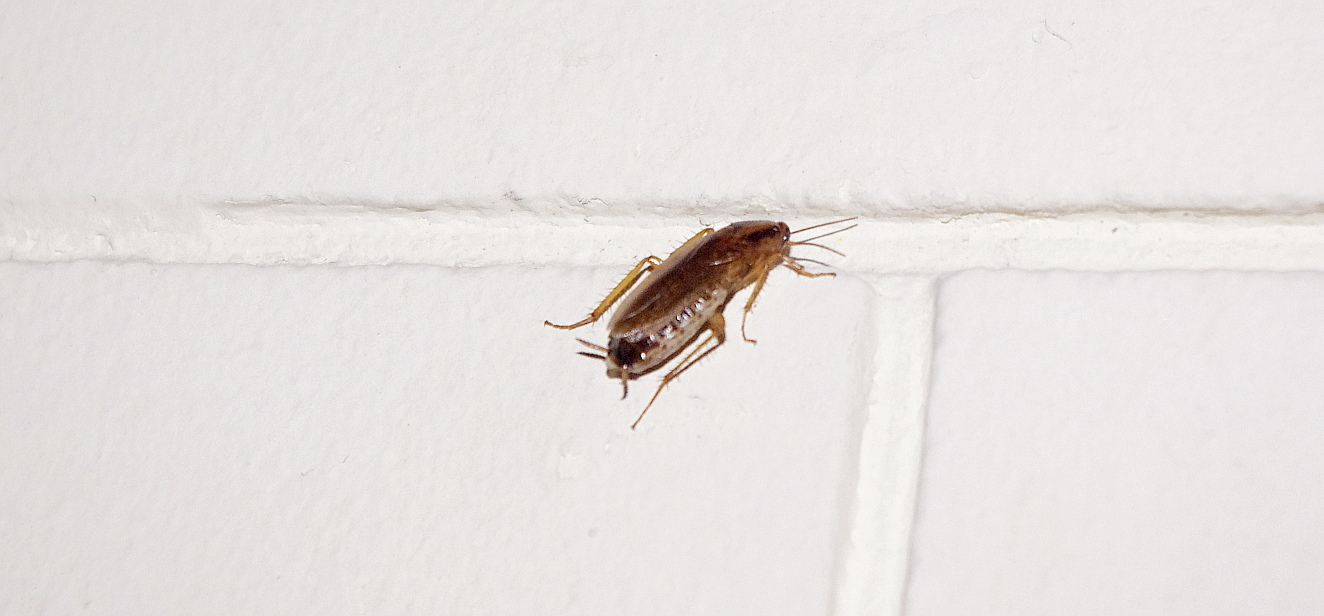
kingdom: Animalia
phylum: Arthropoda
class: Insecta
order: Blattodea
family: Ectobiidae
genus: Blattella
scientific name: Blattella germanica
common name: German cockroach
